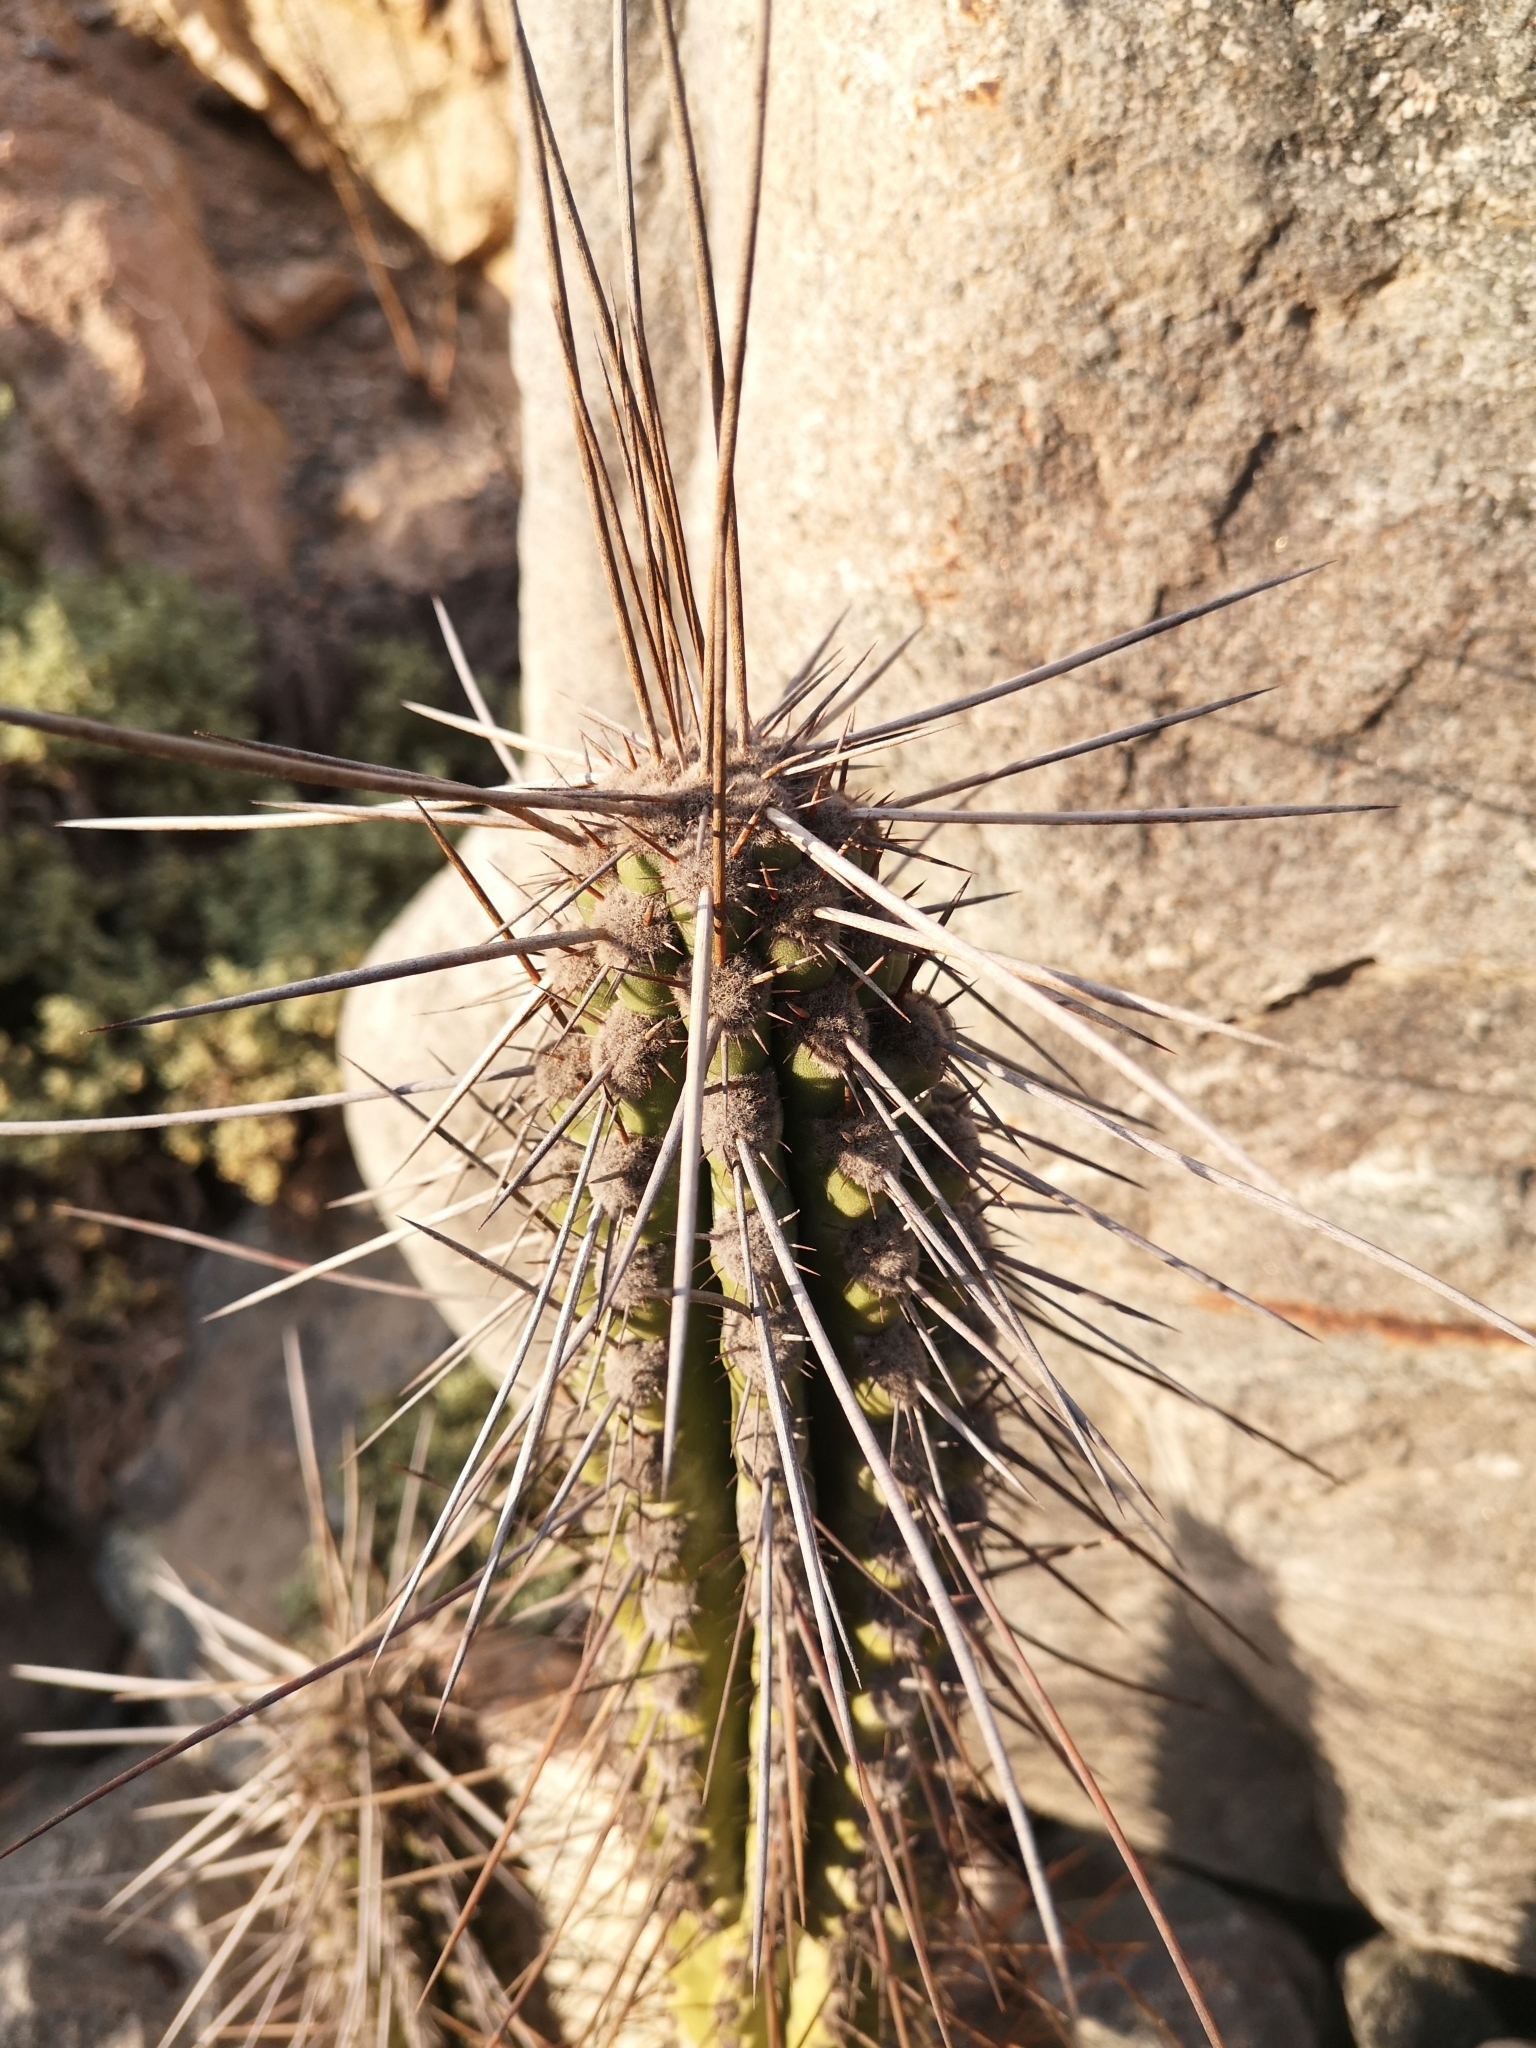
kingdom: Plantae
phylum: Tracheophyta
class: Magnoliopsida
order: Caryophyllales
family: Cactaceae
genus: Eulychnia
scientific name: Eulychnia iquiquensis
